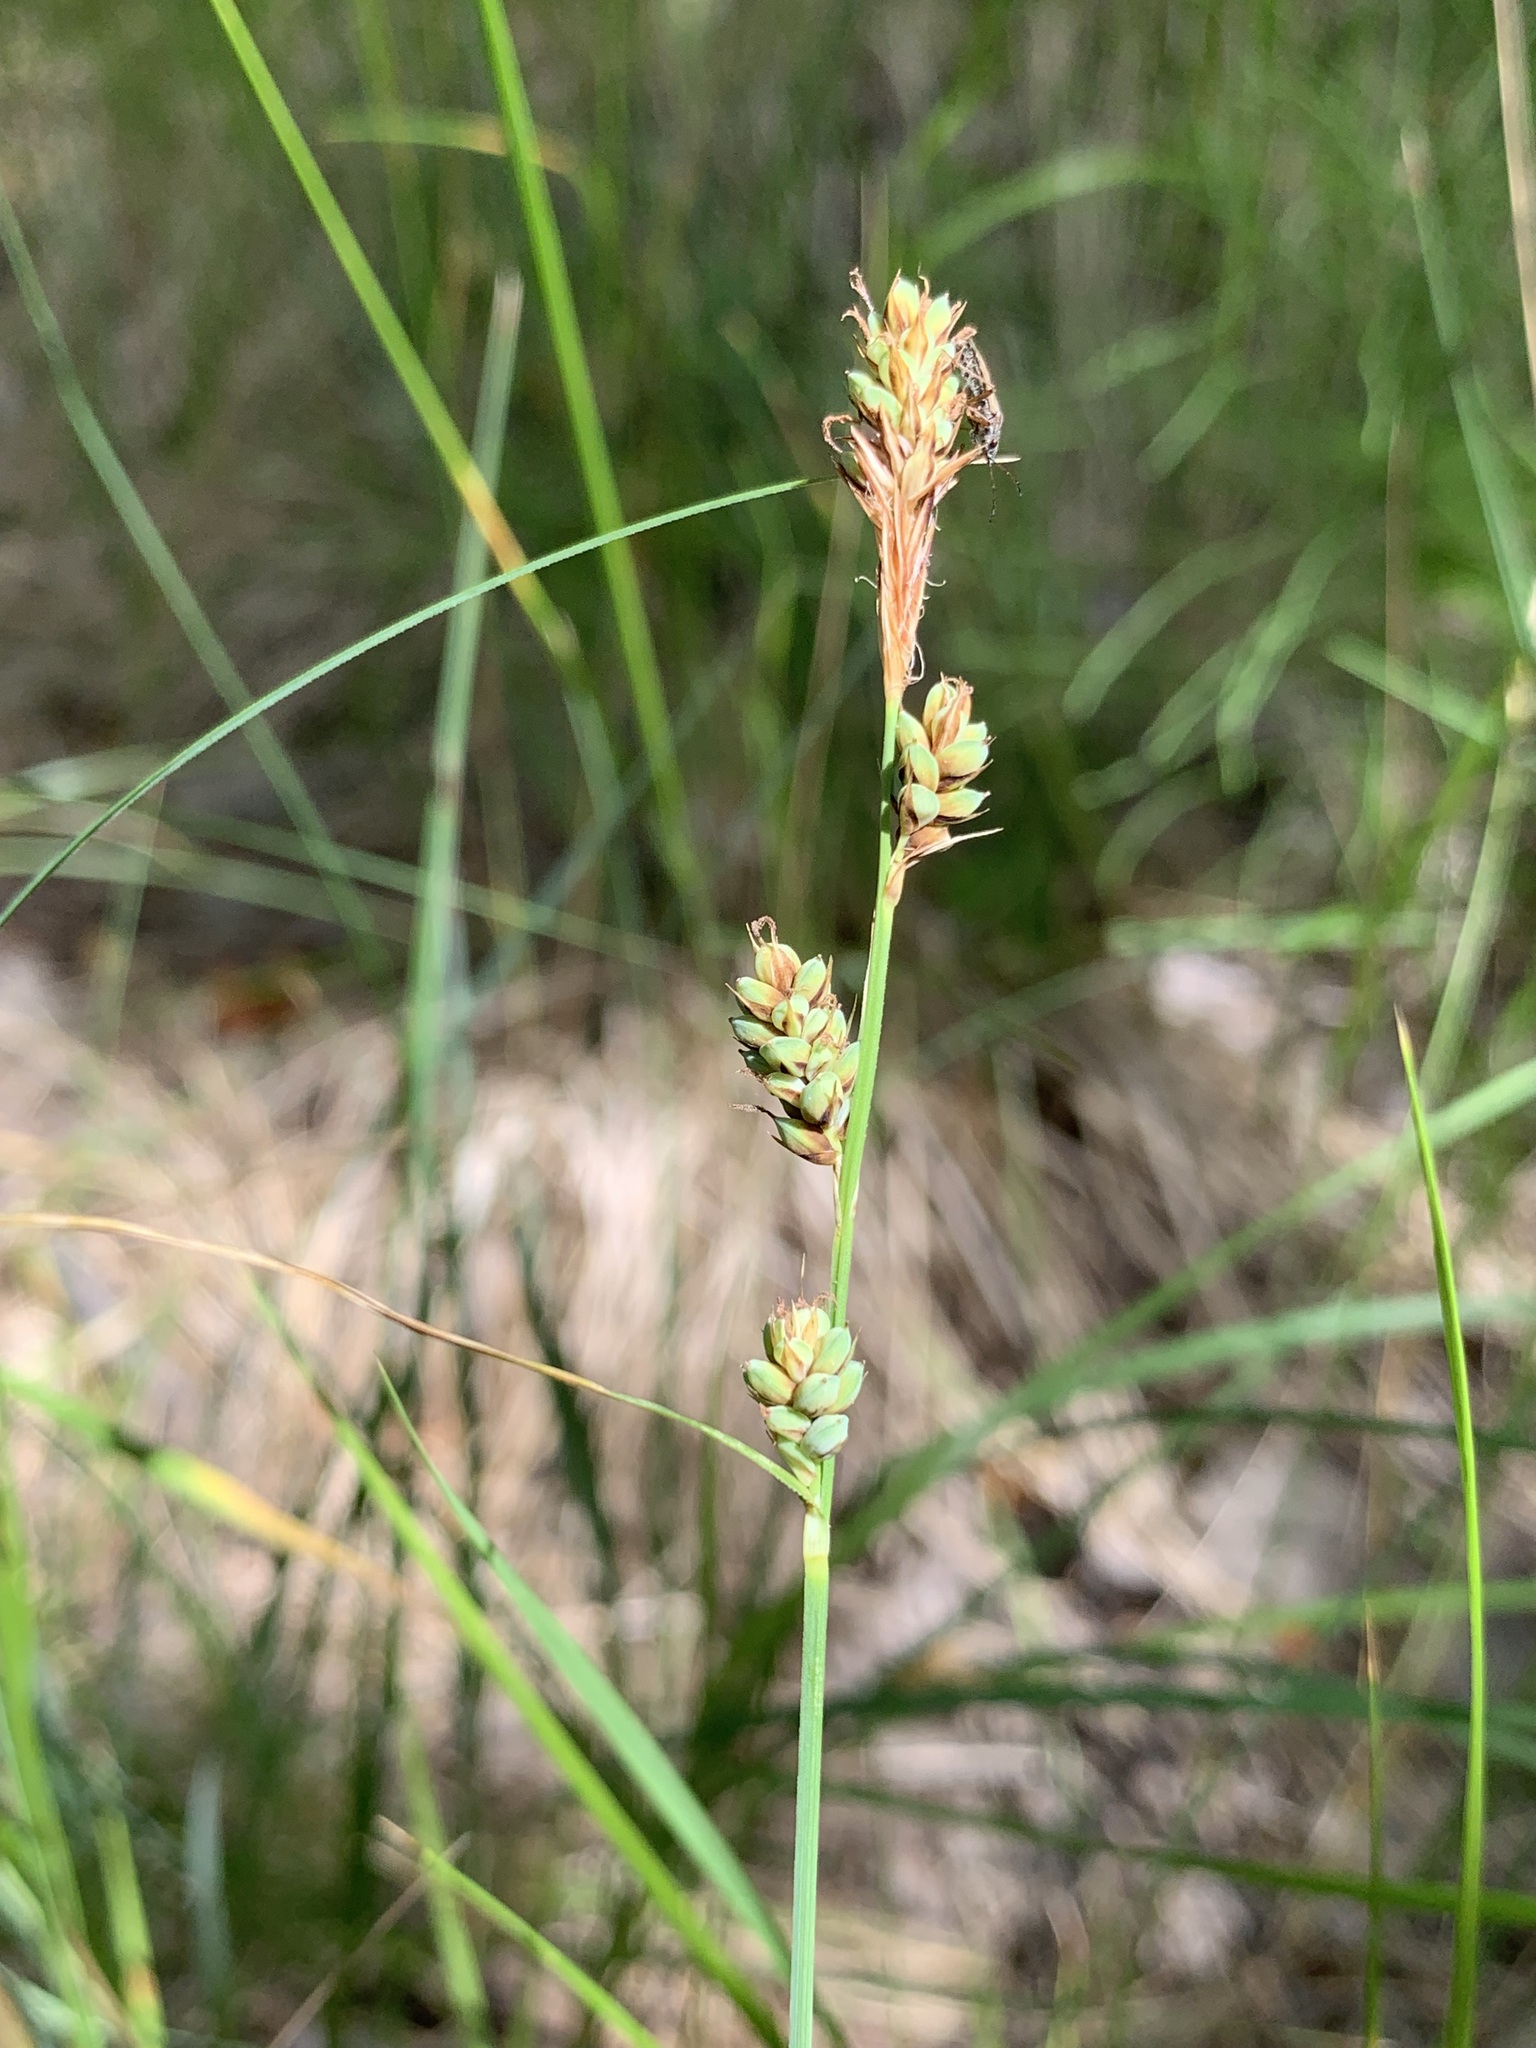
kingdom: Plantae
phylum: Tracheophyta
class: Liliopsida
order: Poales
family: Cyperaceae
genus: Carex
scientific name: Carex buxbaumii
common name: Club sedge
